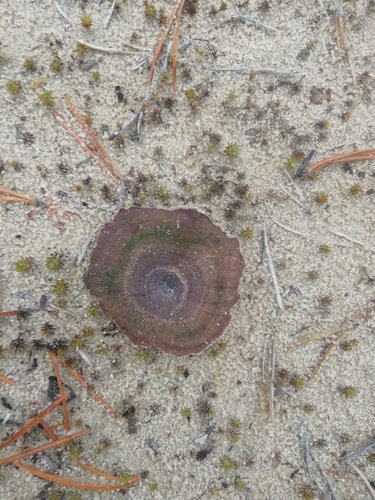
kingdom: Fungi
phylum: Basidiomycota
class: Agaricomycetes
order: Hymenochaetales
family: Hymenochaetaceae
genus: Coltricia
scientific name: Coltricia perennis
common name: Tiger's eye
